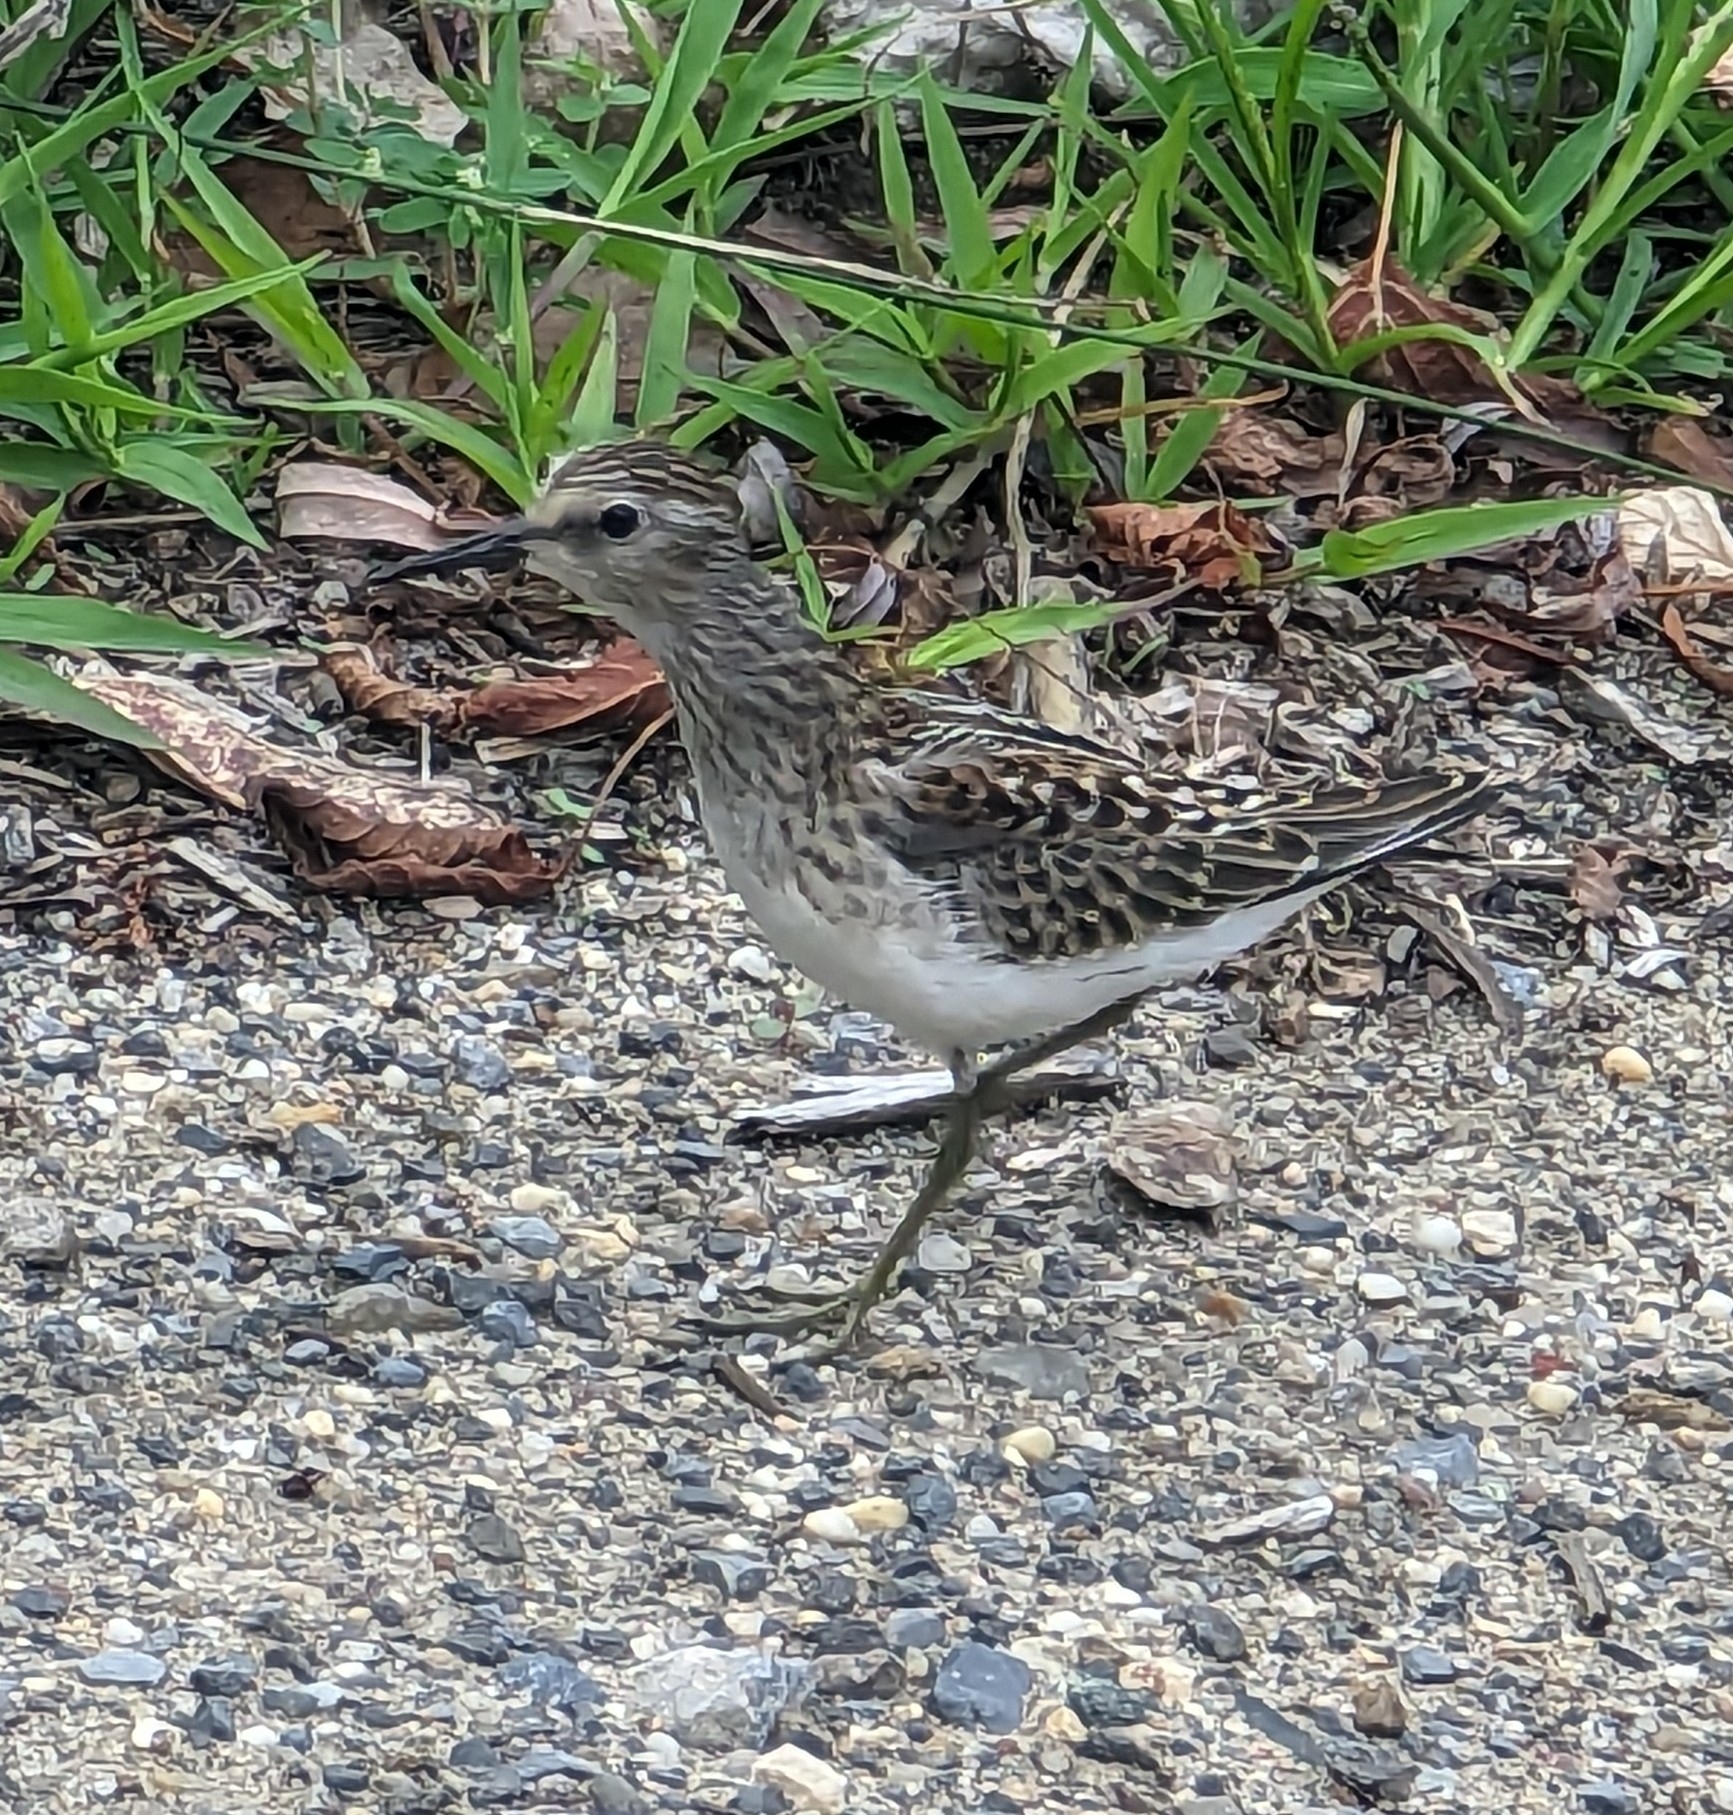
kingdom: Animalia
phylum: Chordata
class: Aves
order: Charadriiformes
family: Scolopacidae
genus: Calidris
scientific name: Calidris minutilla
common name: Least sandpiper
